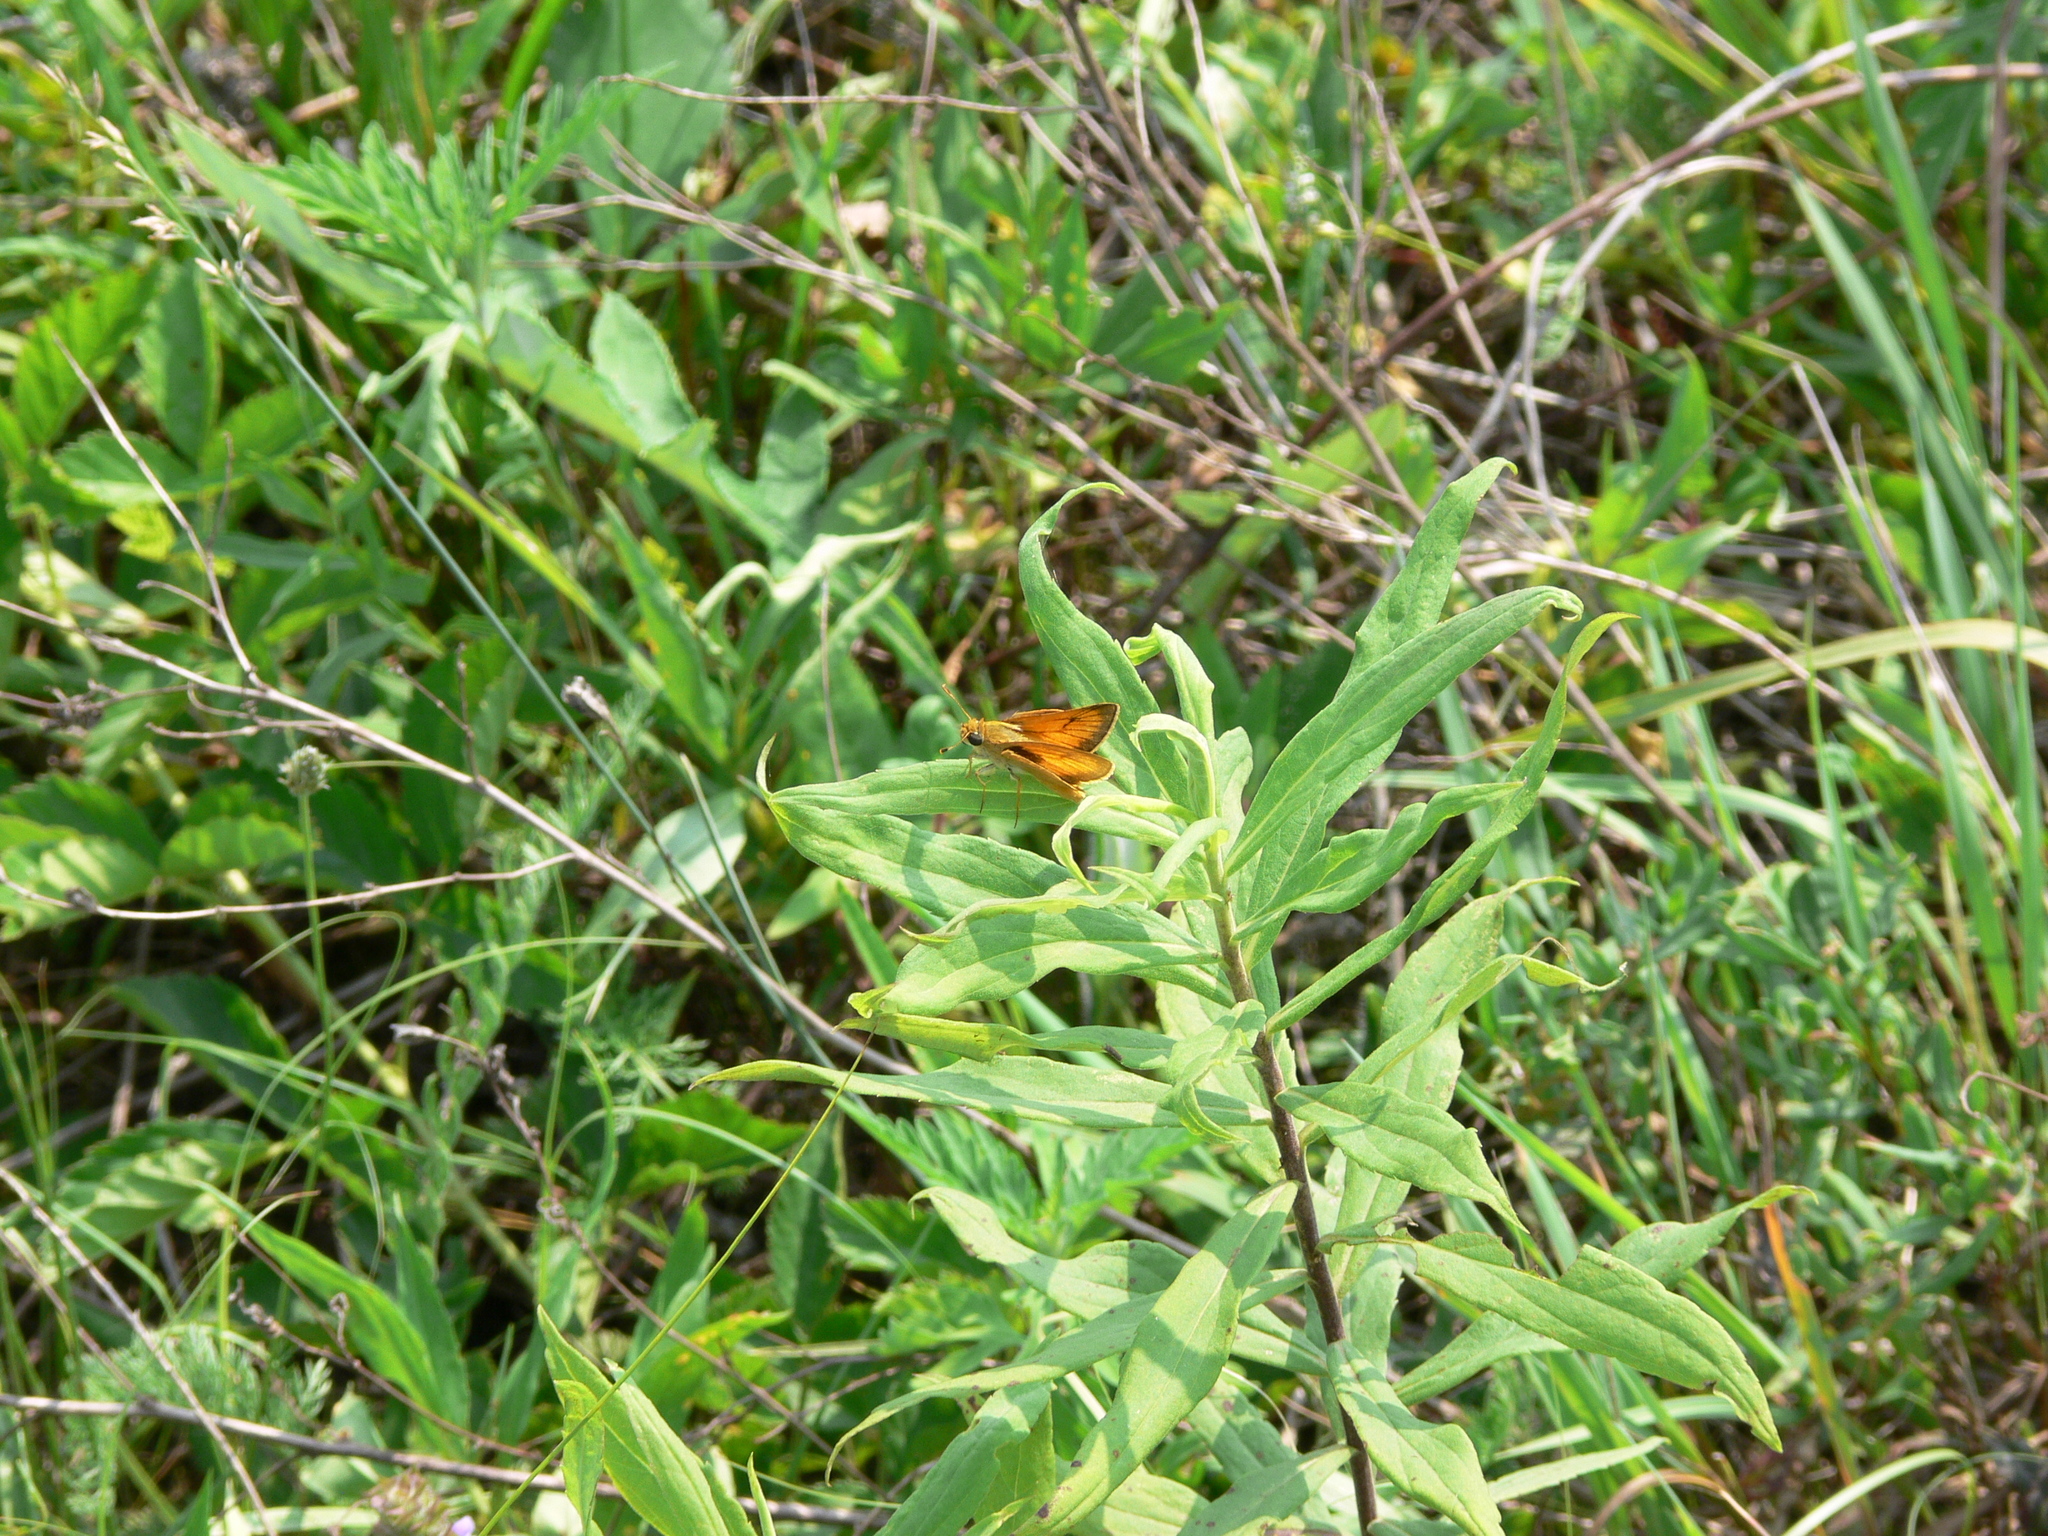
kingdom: Animalia
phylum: Arthropoda
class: Insecta
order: Lepidoptera
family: Hesperiidae
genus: Atrytone
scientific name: Atrytone delaware
